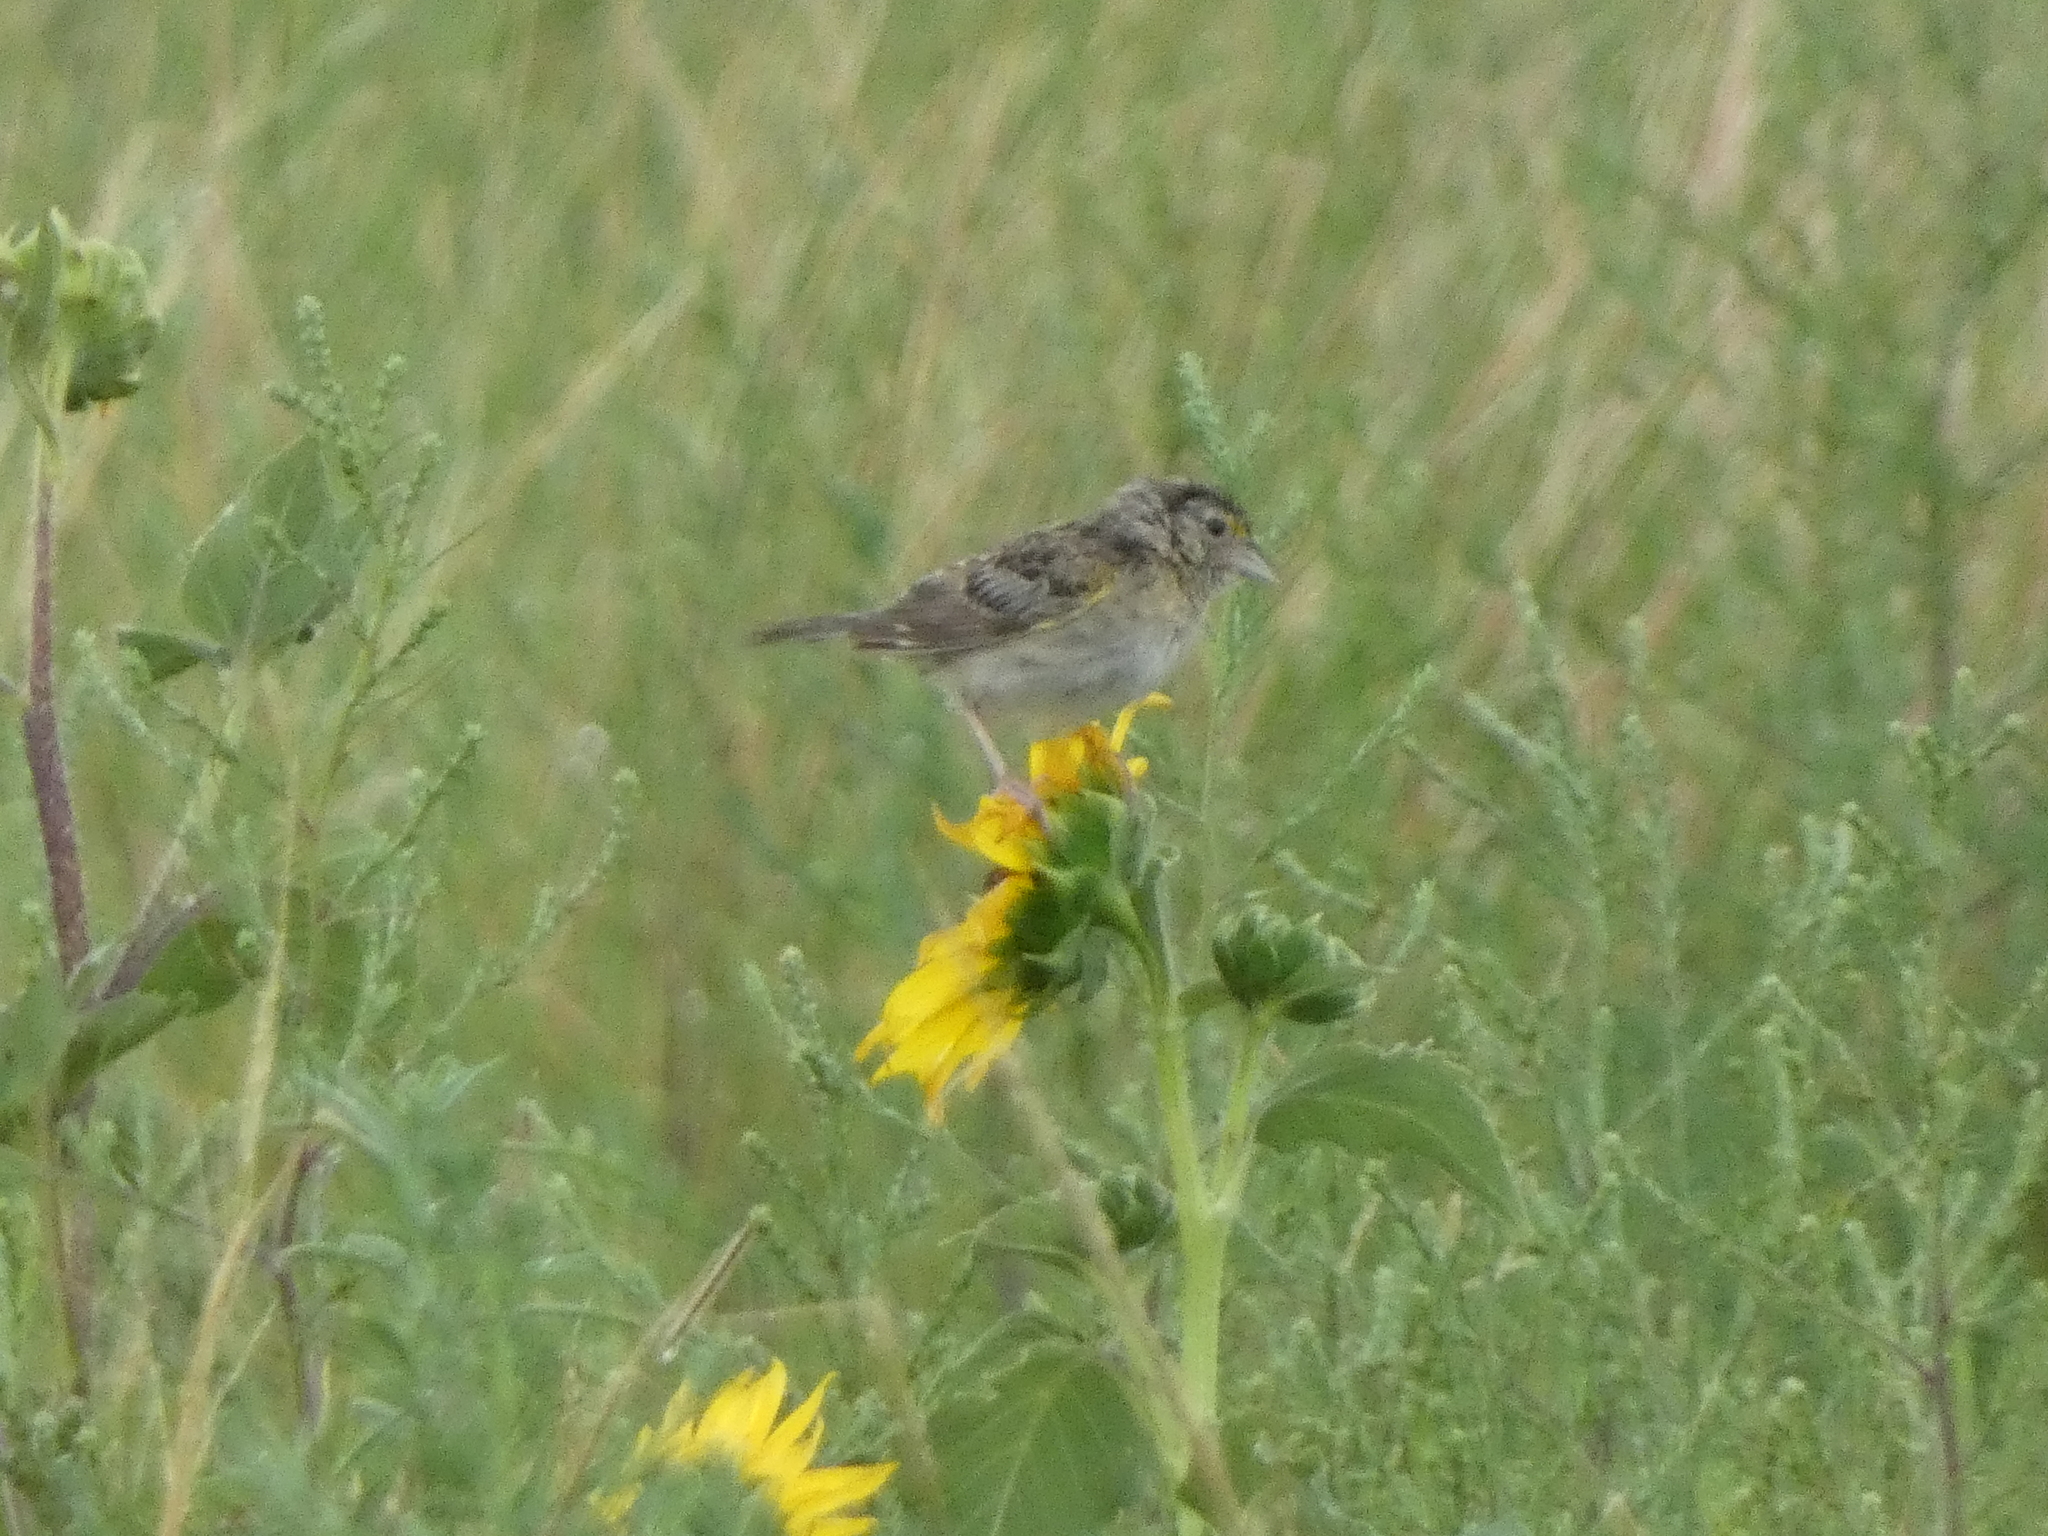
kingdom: Animalia
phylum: Chordata
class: Aves
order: Passeriformes
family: Passerellidae
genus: Ammodramus
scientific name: Ammodramus savannarum
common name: Grasshopper sparrow
